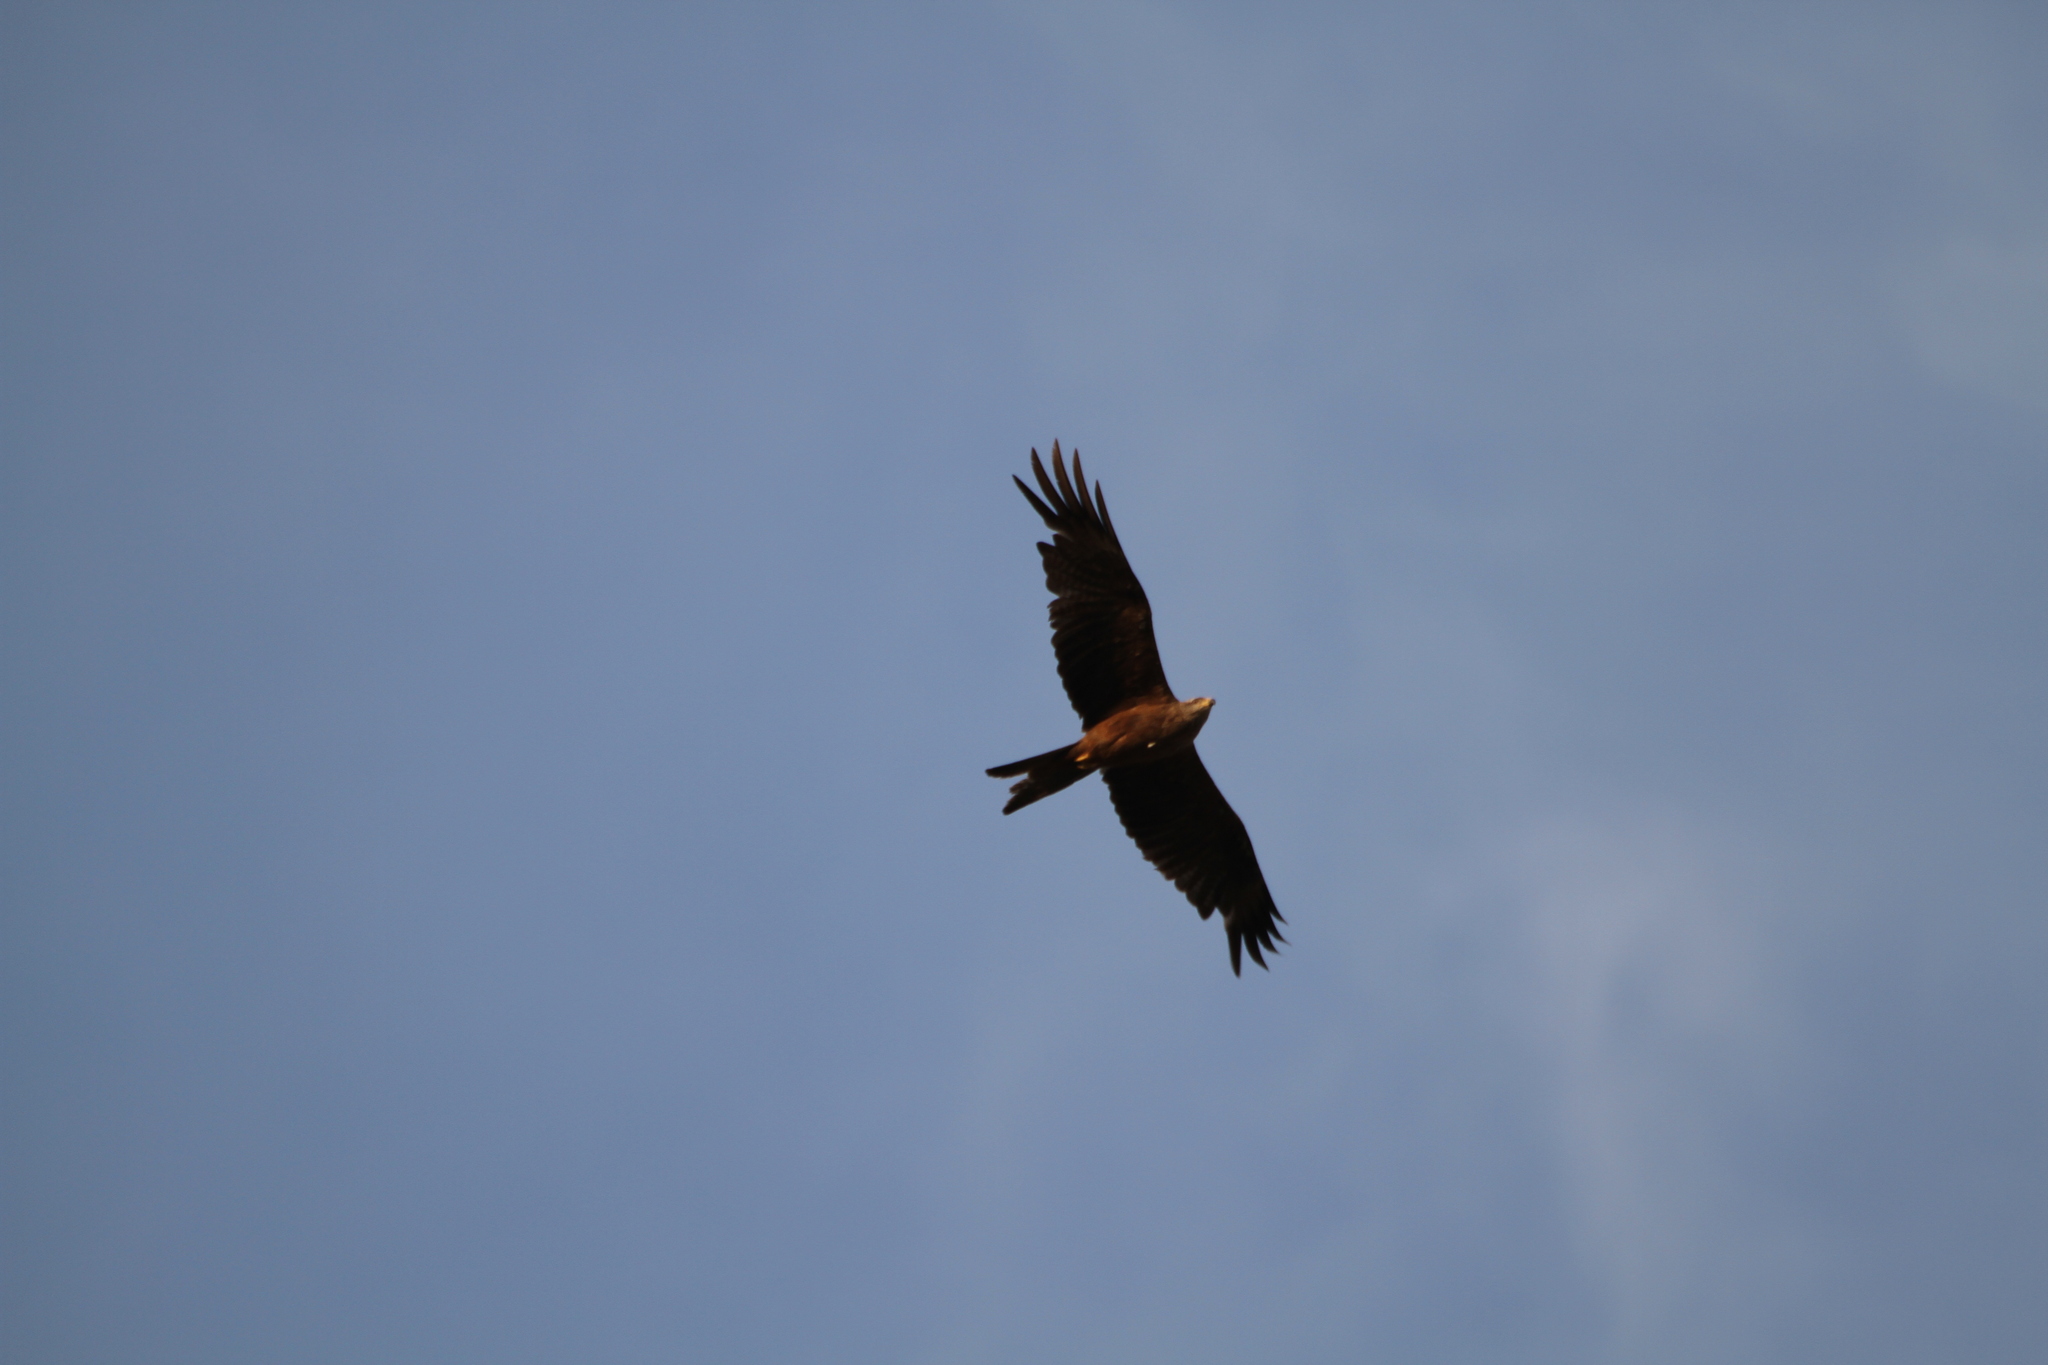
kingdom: Animalia
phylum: Chordata
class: Aves
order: Accipitriformes
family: Accipitridae
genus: Milvus
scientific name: Milvus migrans
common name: Black kite
